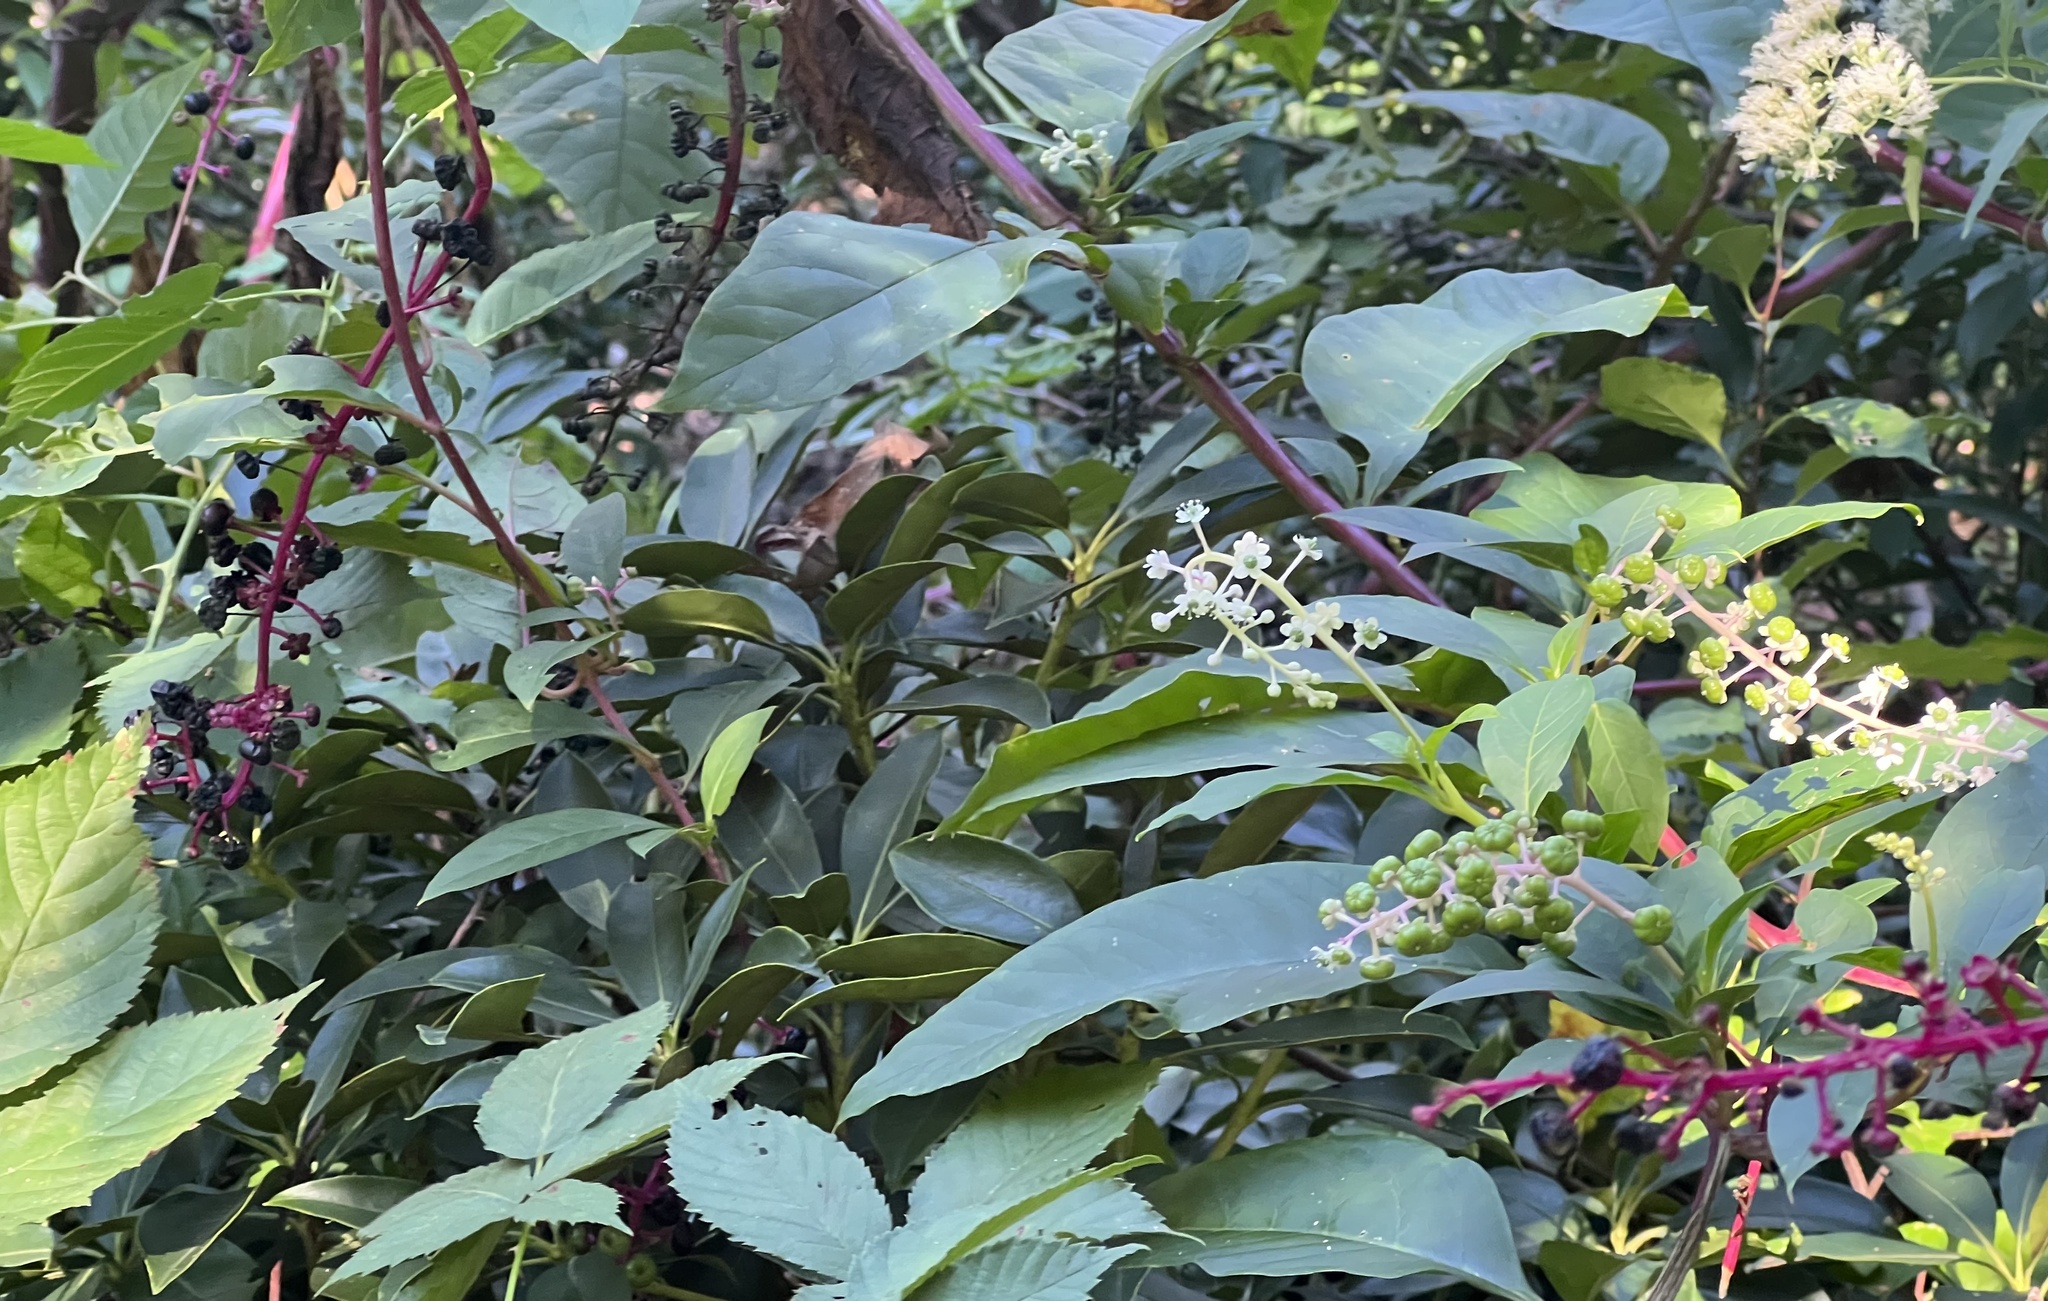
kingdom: Plantae
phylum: Tracheophyta
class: Magnoliopsida
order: Caryophyllales
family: Phytolaccaceae
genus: Phytolacca
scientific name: Phytolacca americana
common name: American pokeweed
